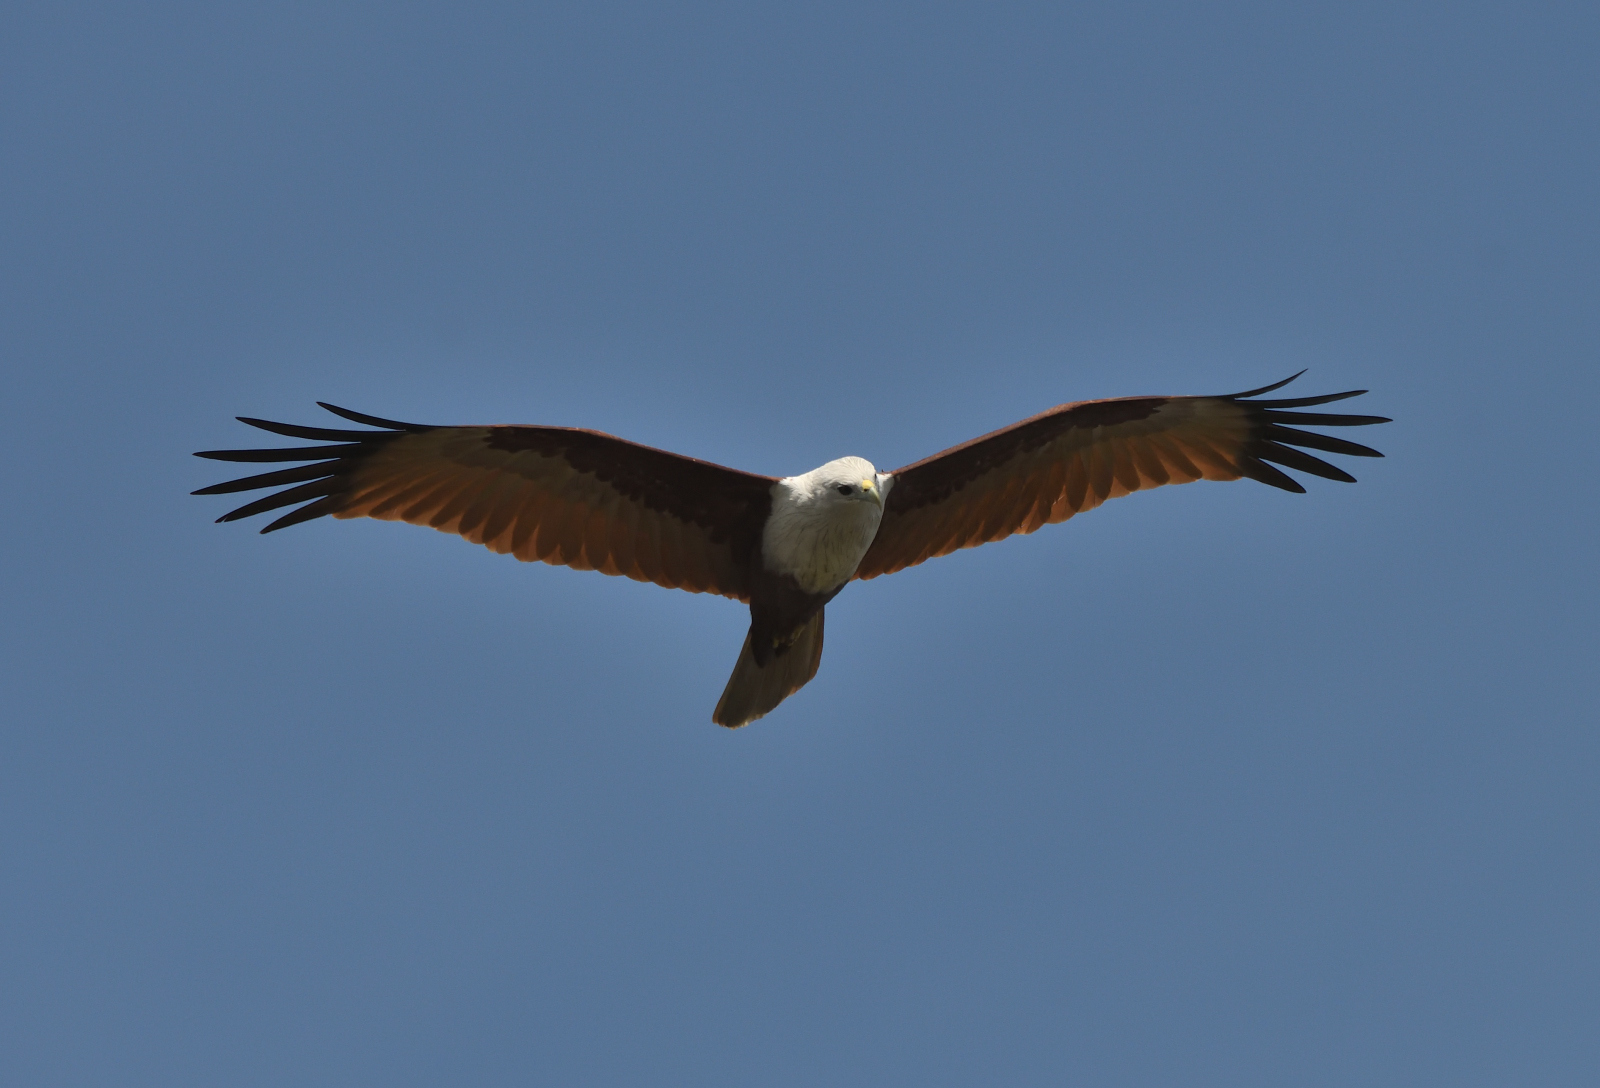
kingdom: Animalia
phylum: Chordata
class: Aves
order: Accipitriformes
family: Accipitridae
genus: Haliastur
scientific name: Haliastur indus
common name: Brahminy kite
